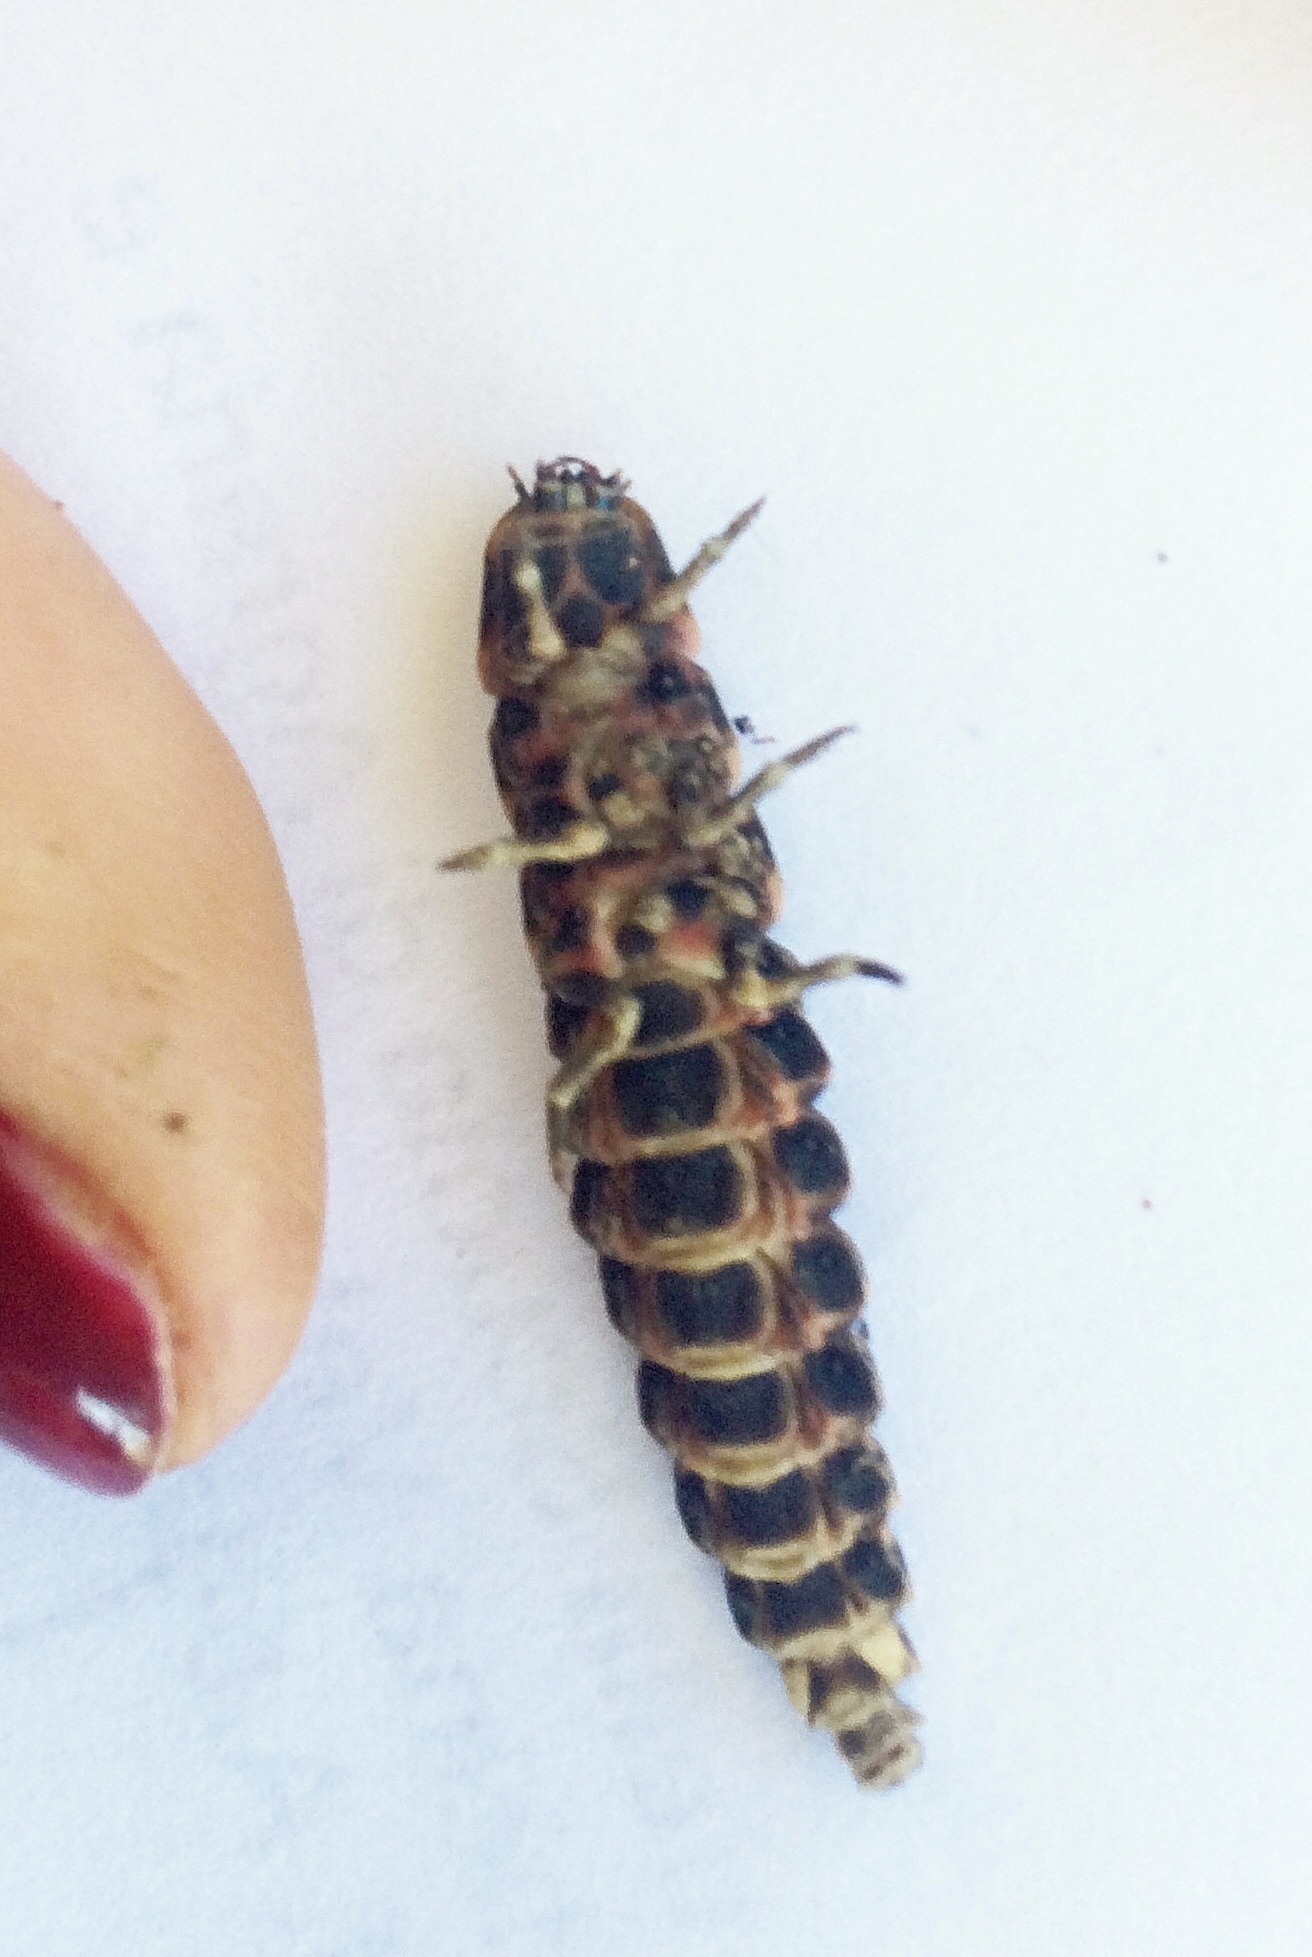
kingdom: Animalia
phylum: Arthropoda
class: Insecta
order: Coleoptera
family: Lampyridae
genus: Lampyris
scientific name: Lampyris raymondi
